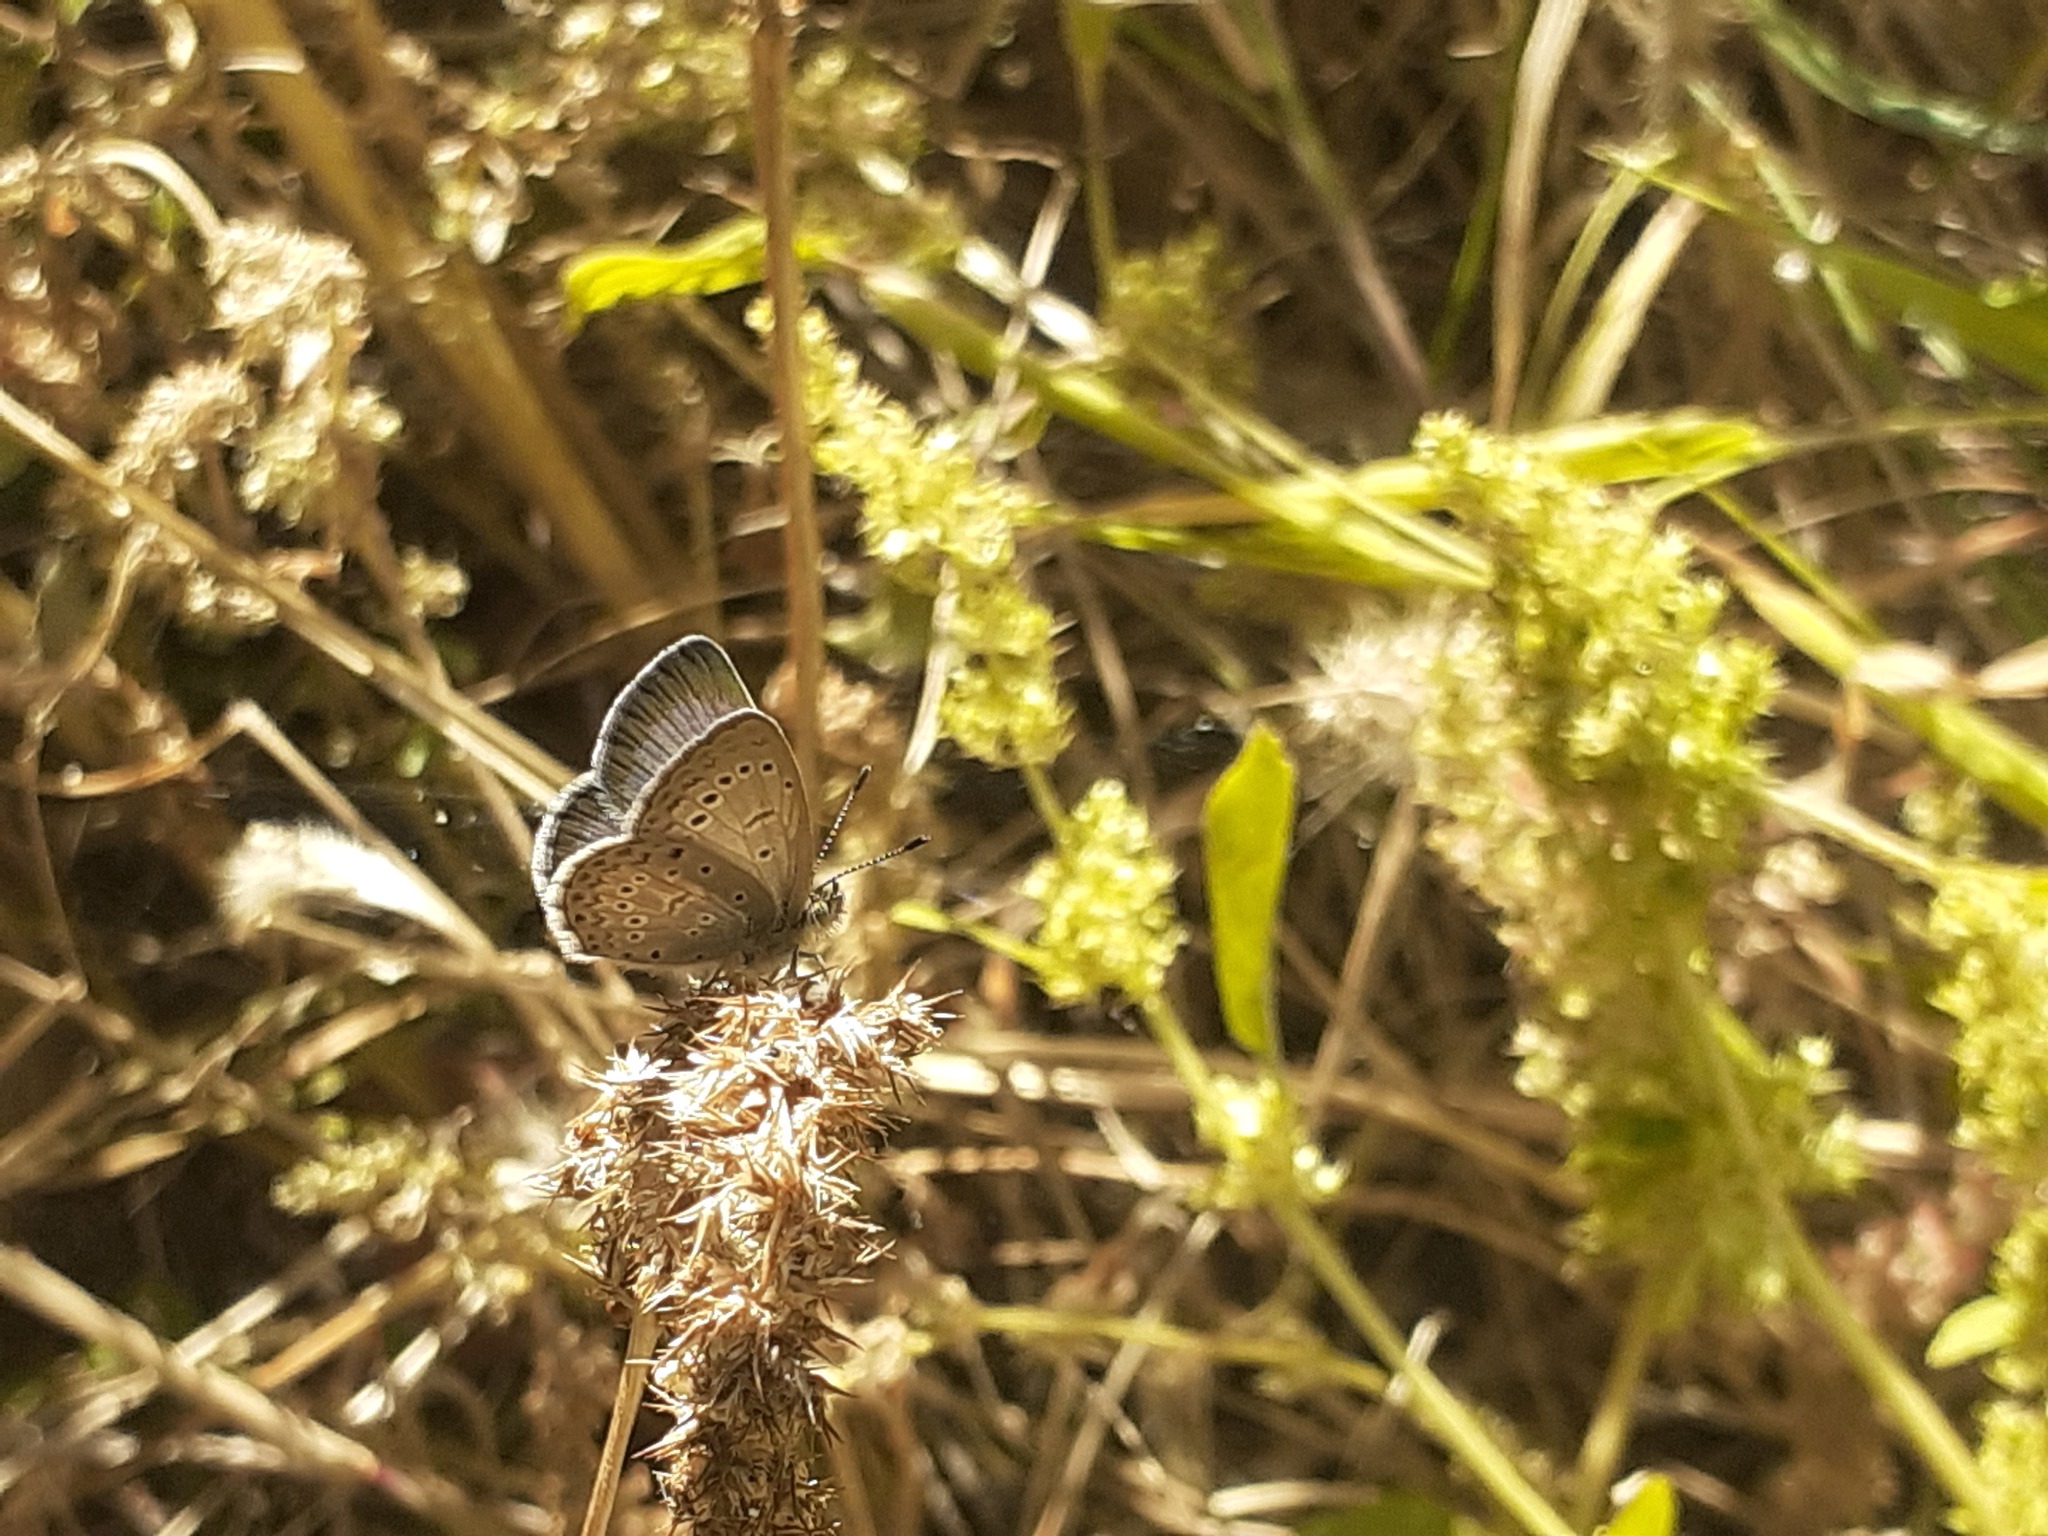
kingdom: Animalia
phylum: Arthropoda
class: Insecta
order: Lepidoptera
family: Lycaenidae
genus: Zizeeria
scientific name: Zizeeria knysna
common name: African grass blue
